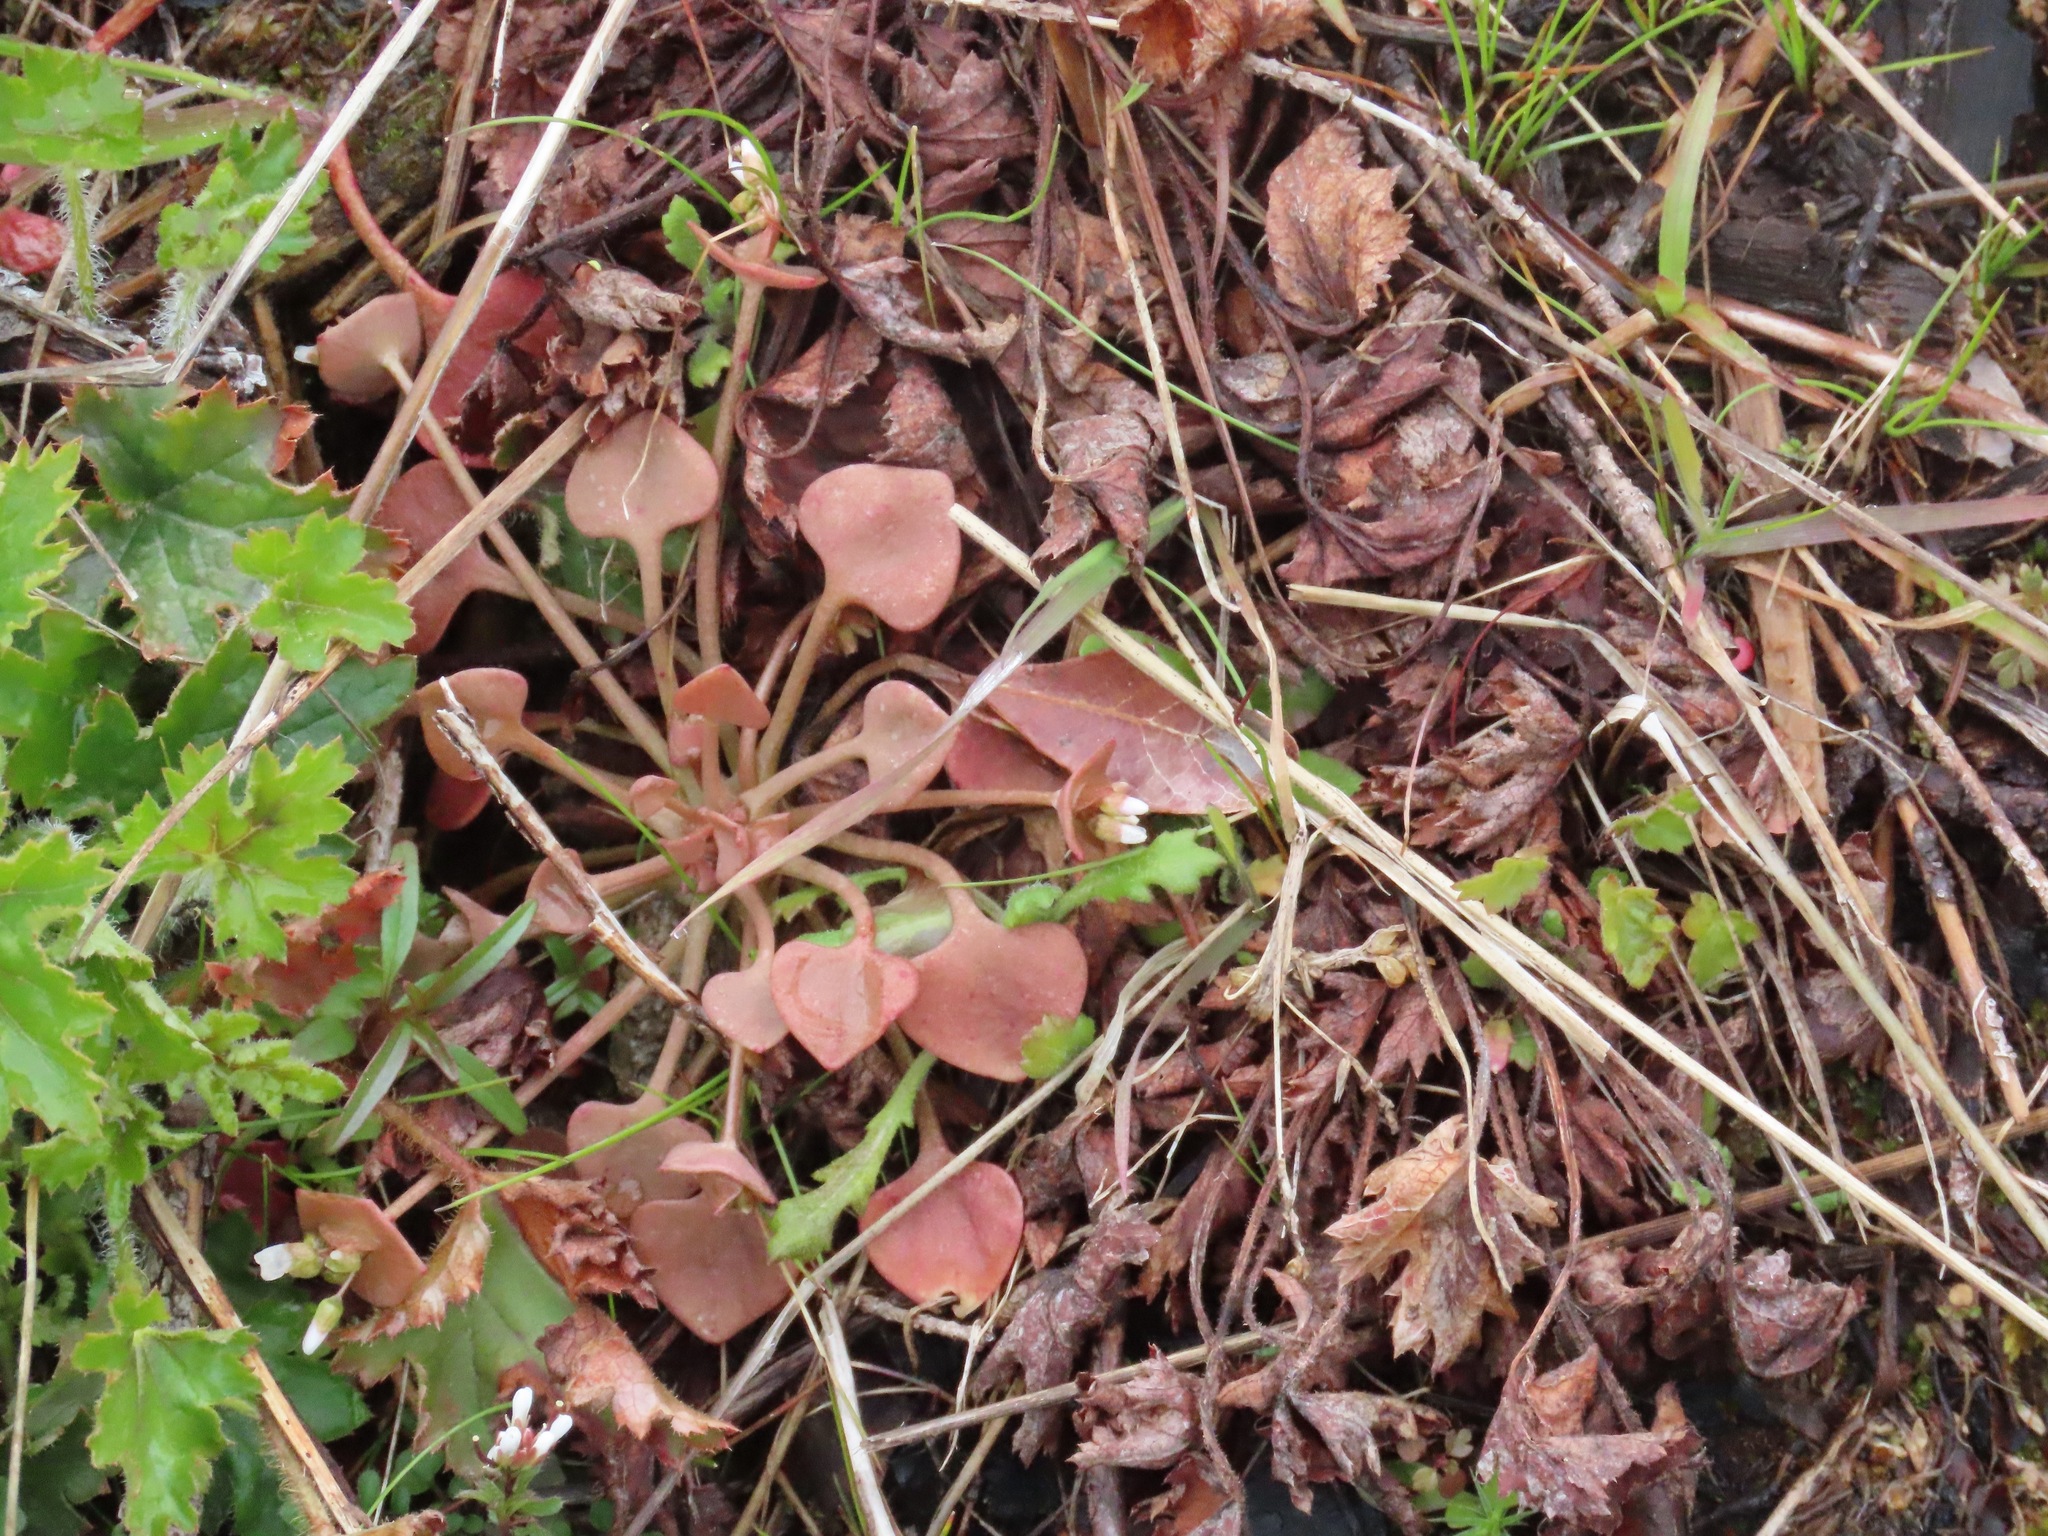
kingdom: Plantae
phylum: Tracheophyta
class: Magnoliopsida
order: Caryophyllales
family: Montiaceae
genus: Claytonia
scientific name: Claytonia rubra
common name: Erubescent miner's-lettuce
